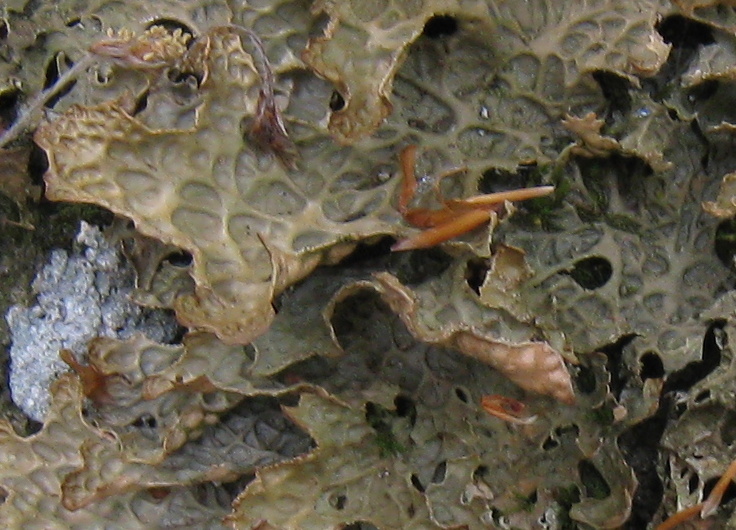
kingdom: Fungi
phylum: Ascomycota
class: Lecanoromycetes
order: Peltigerales
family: Lobariaceae
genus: Lobaria
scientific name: Lobaria pulmonaria
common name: Lungwort
